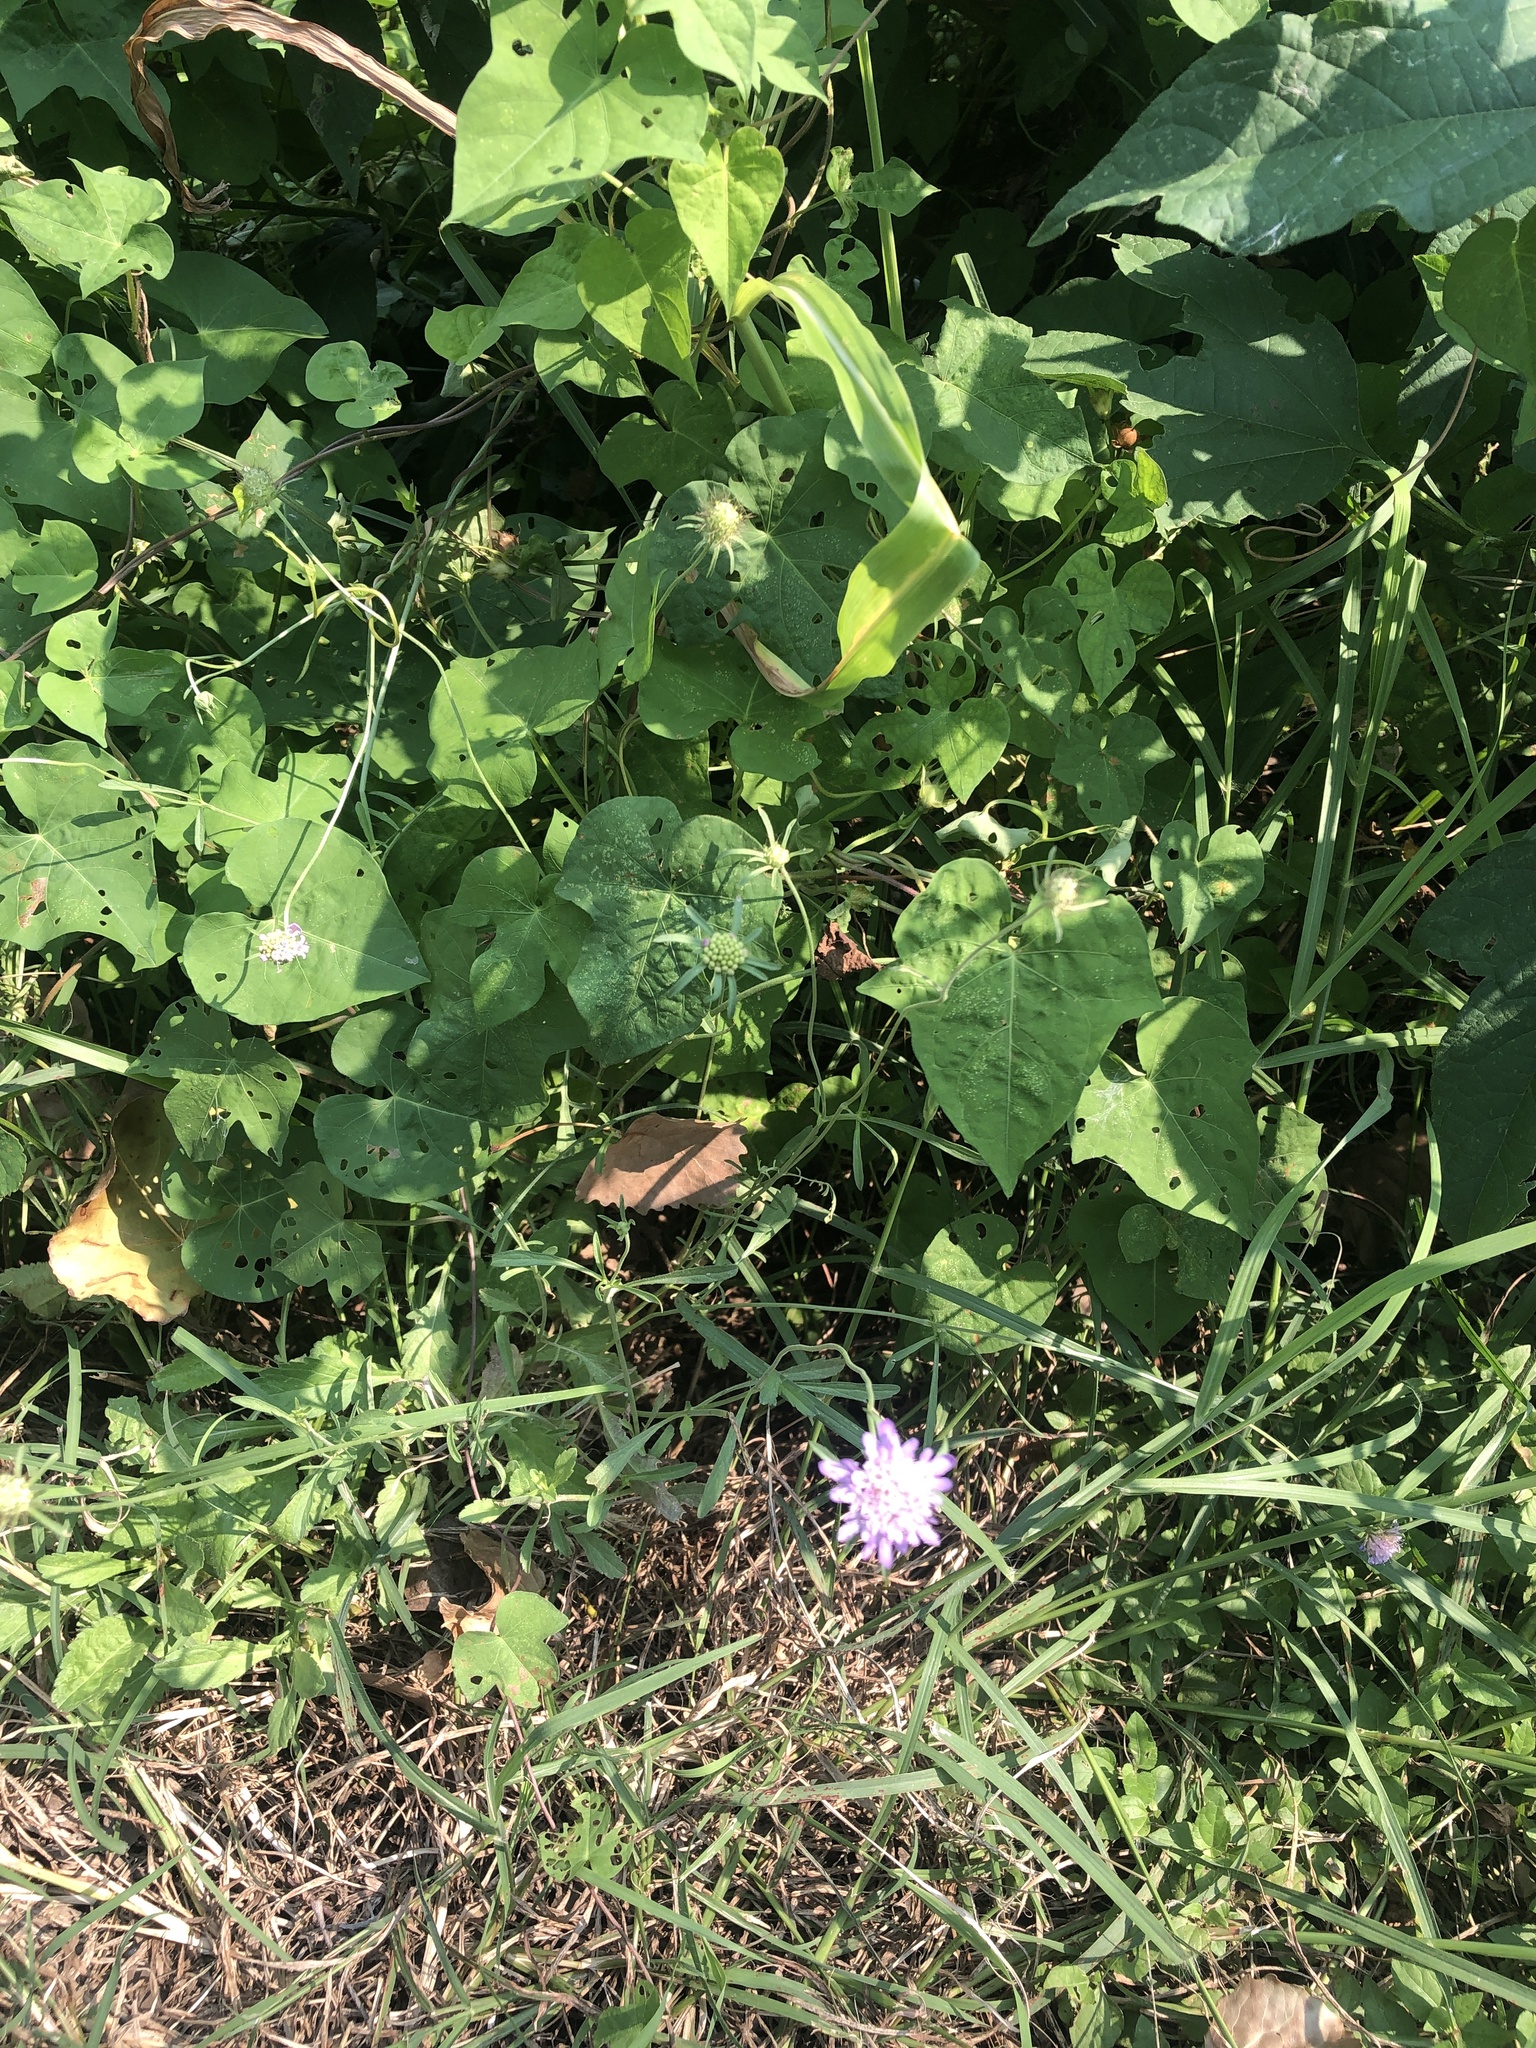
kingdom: Plantae
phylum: Tracheophyta
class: Magnoliopsida
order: Dipsacales
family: Caprifoliaceae
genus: Sixalix
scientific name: Sixalix atropurpurea
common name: Sweet scabious
